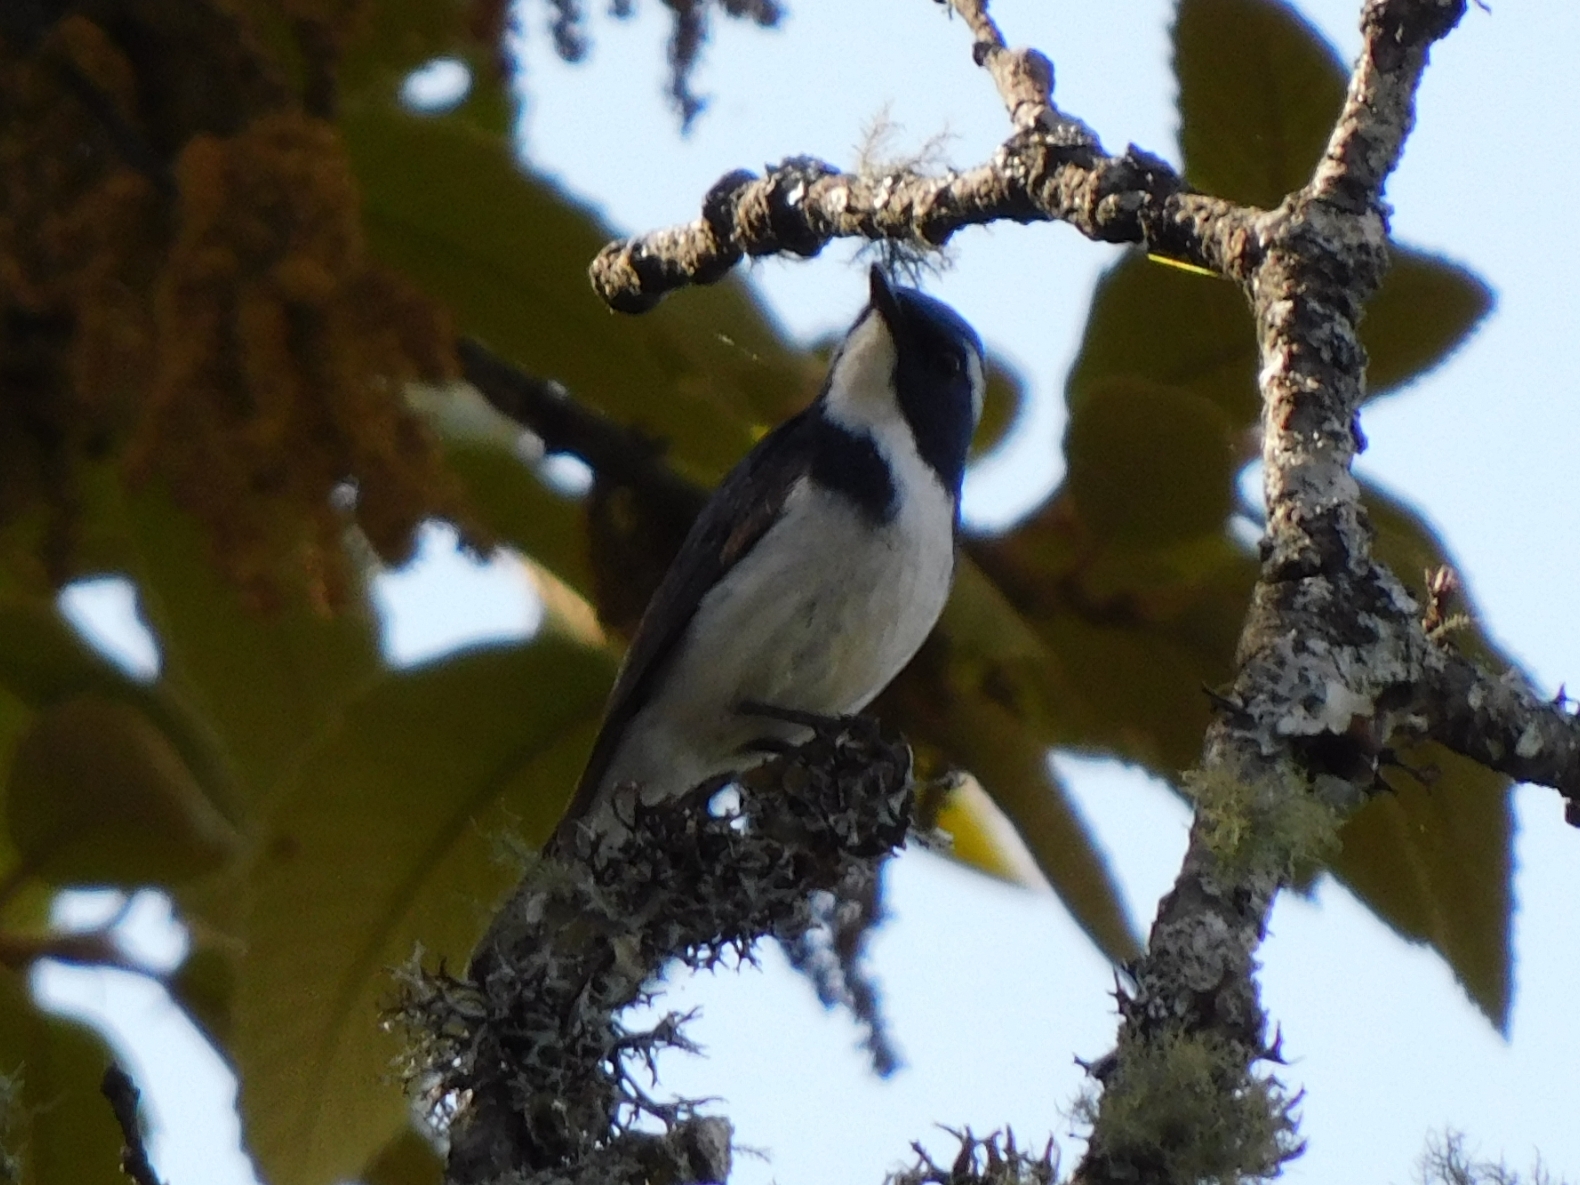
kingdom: Animalia
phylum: Chordata
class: Aves
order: Passeriformes
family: Muscicapidae
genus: Ficedula
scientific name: Ficedula superciliaris
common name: Ultramarine flycatcher
